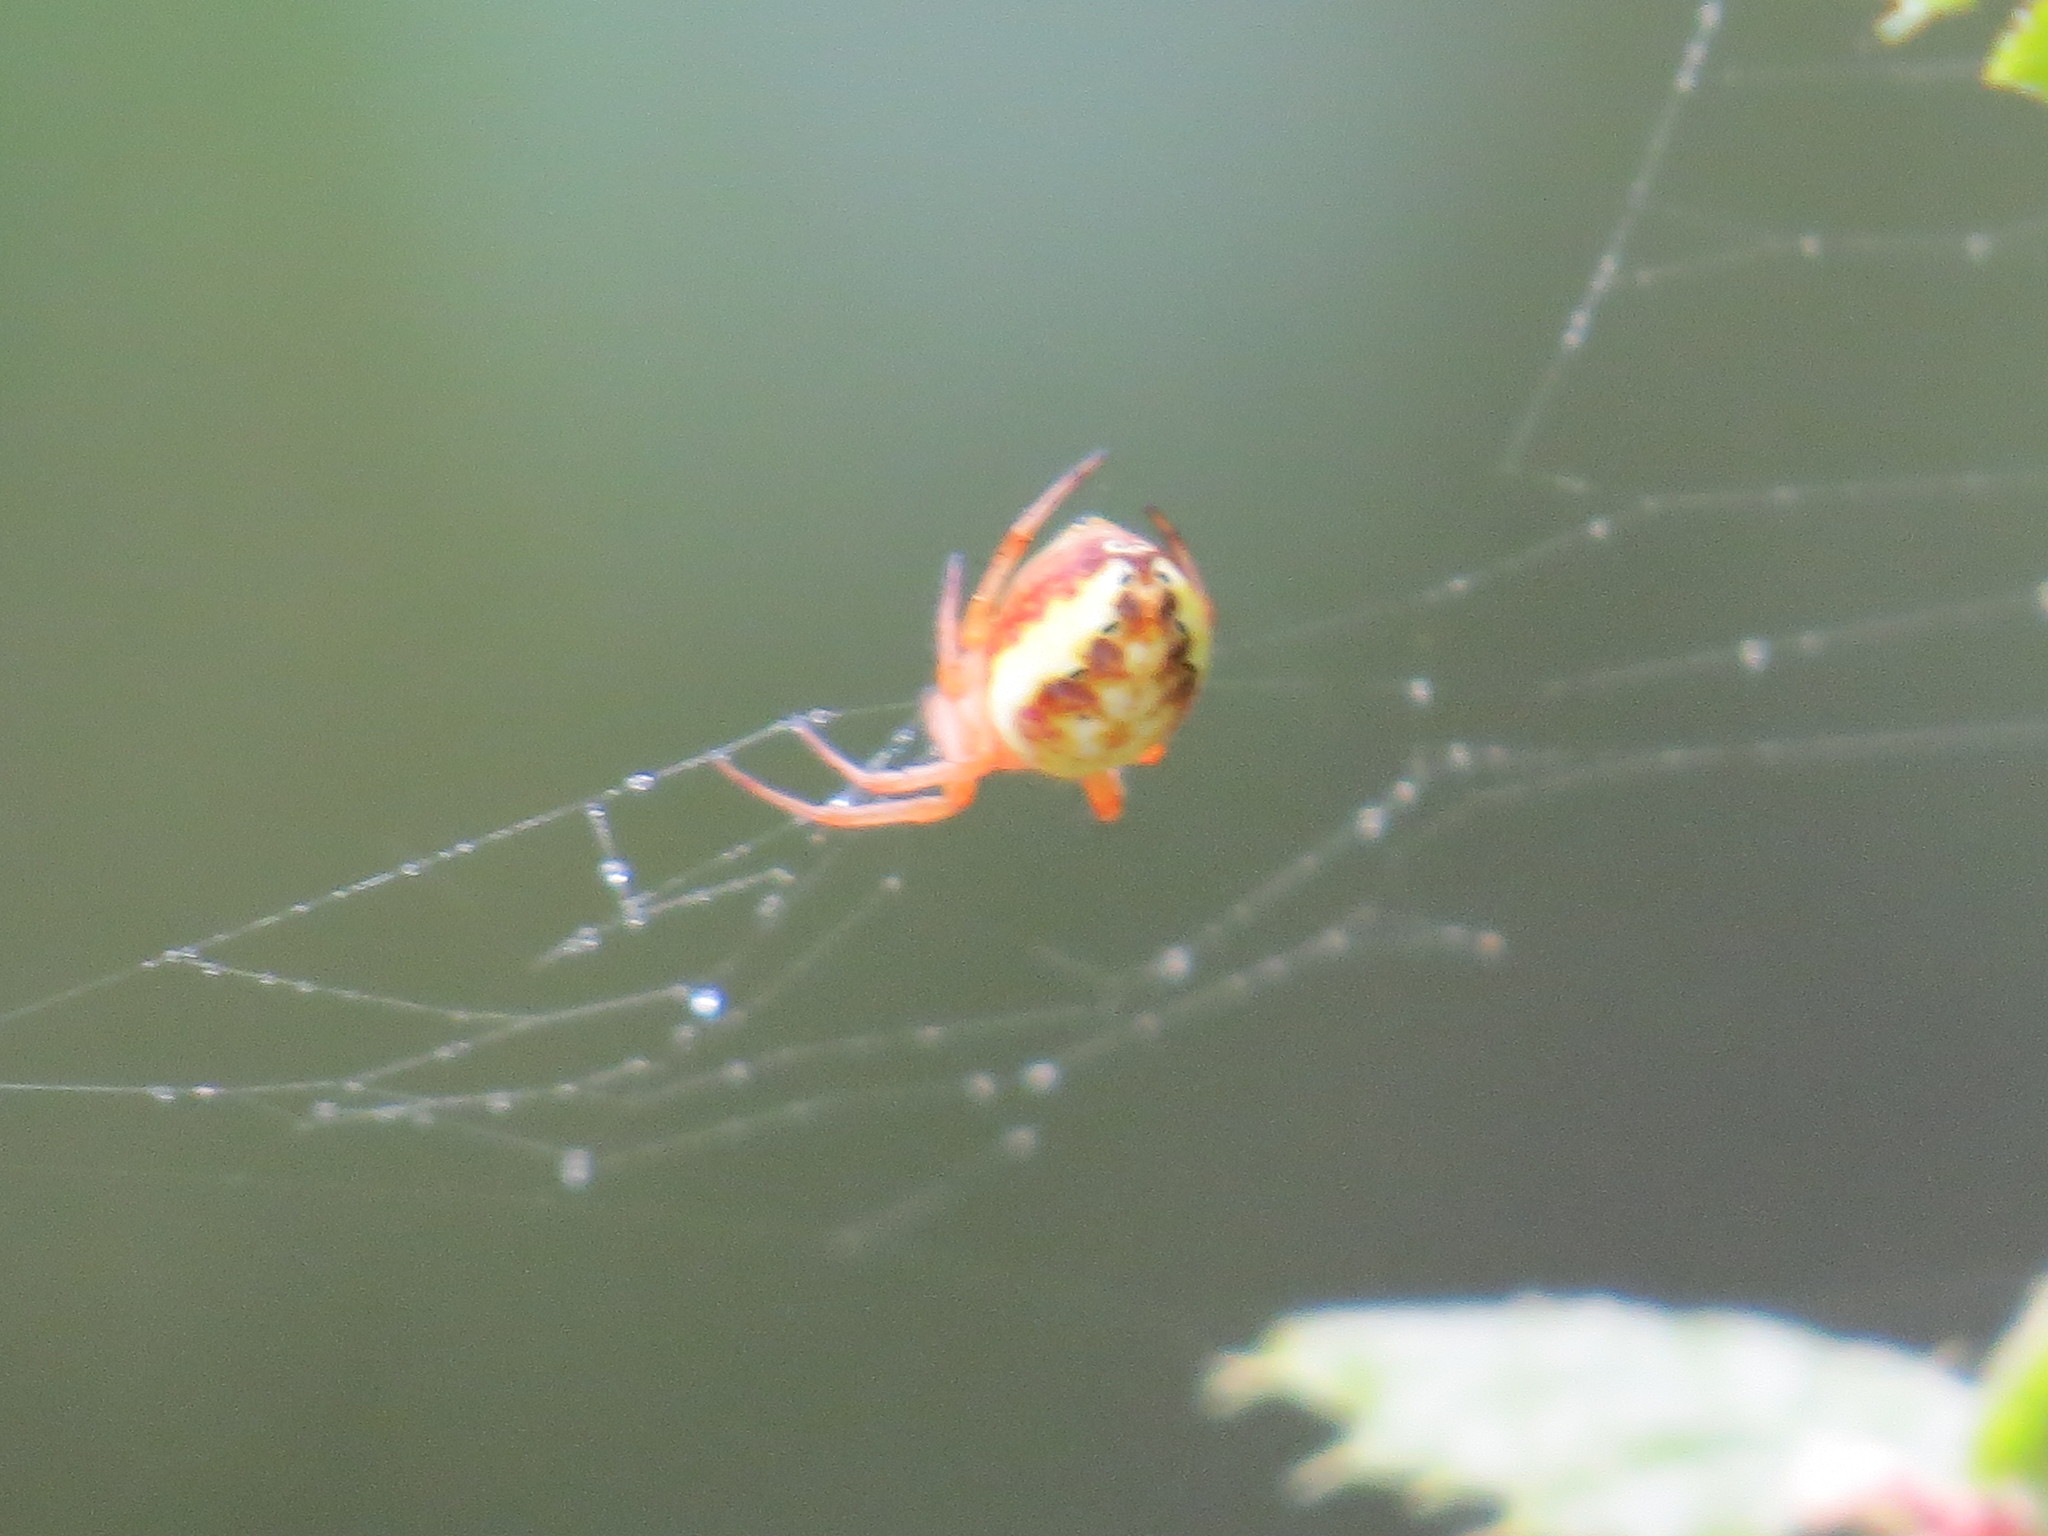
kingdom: Animalia
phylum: Arthropoda
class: Arachnida
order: Araneae
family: Araneidae
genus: Araniella
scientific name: Araniella displicata
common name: Sixspotted orb weaver
